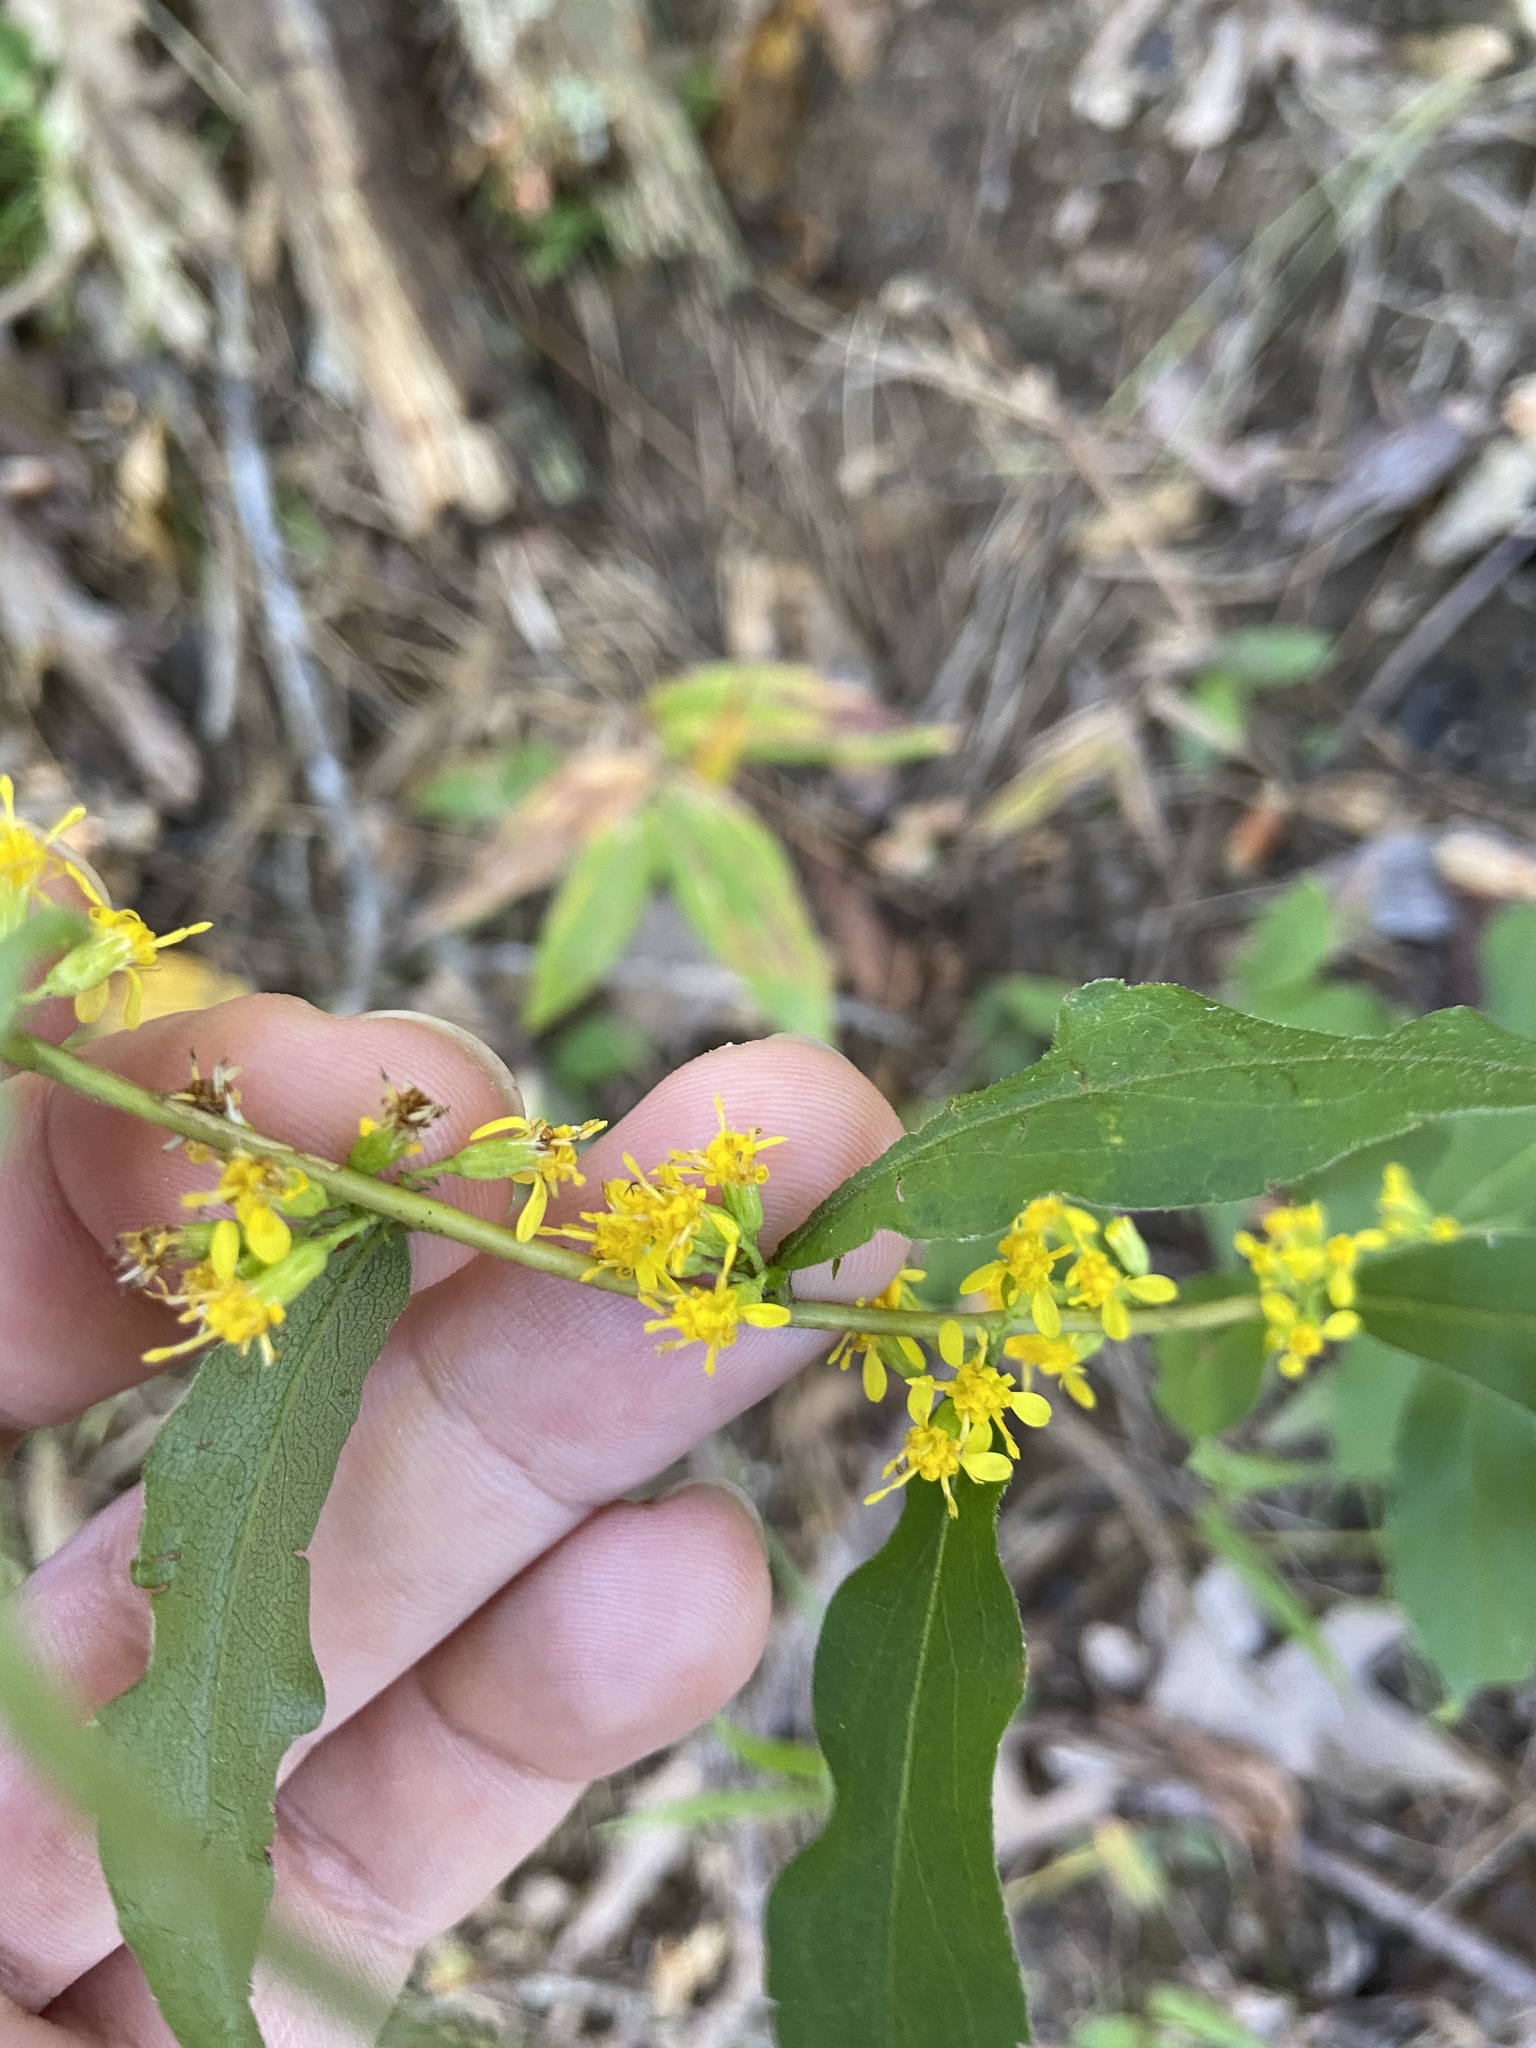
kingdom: Plantae
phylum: Tracheophyta
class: Magnoliopsida
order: Asterales
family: Asteraceae
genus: Solidago
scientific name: Solidago caesia
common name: Woodland goldenrod
